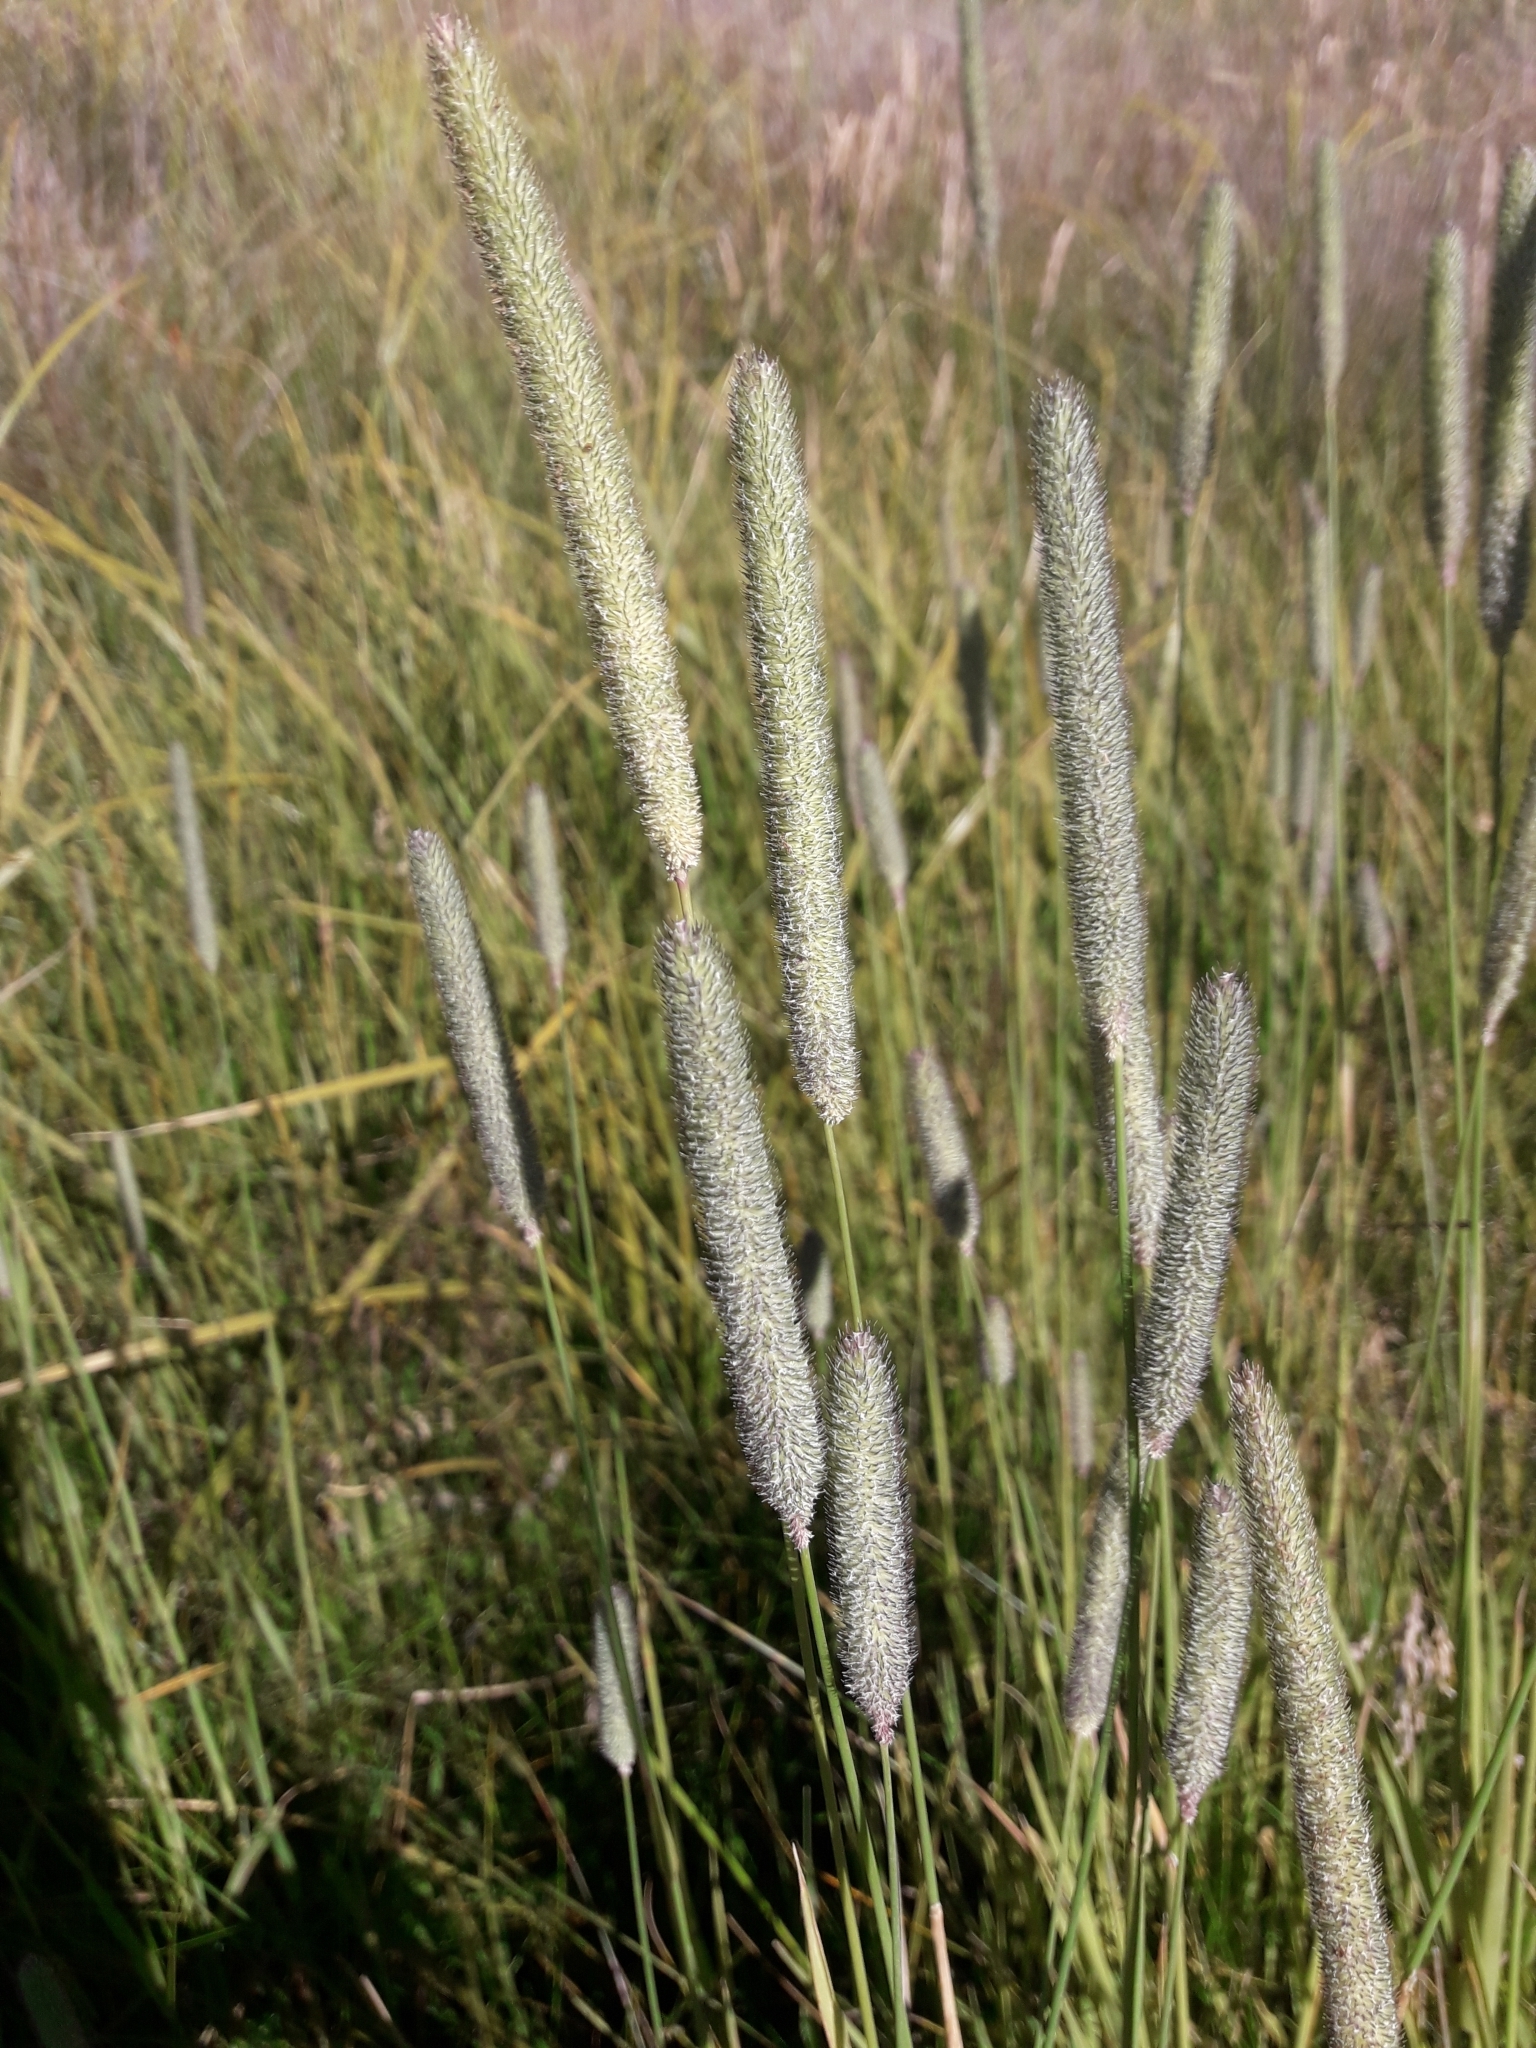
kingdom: Plantae
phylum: Tracheophyta
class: Liliopsida
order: Poales
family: Poaceae
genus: Phleum
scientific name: Phleum pratense
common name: Timothy grass
